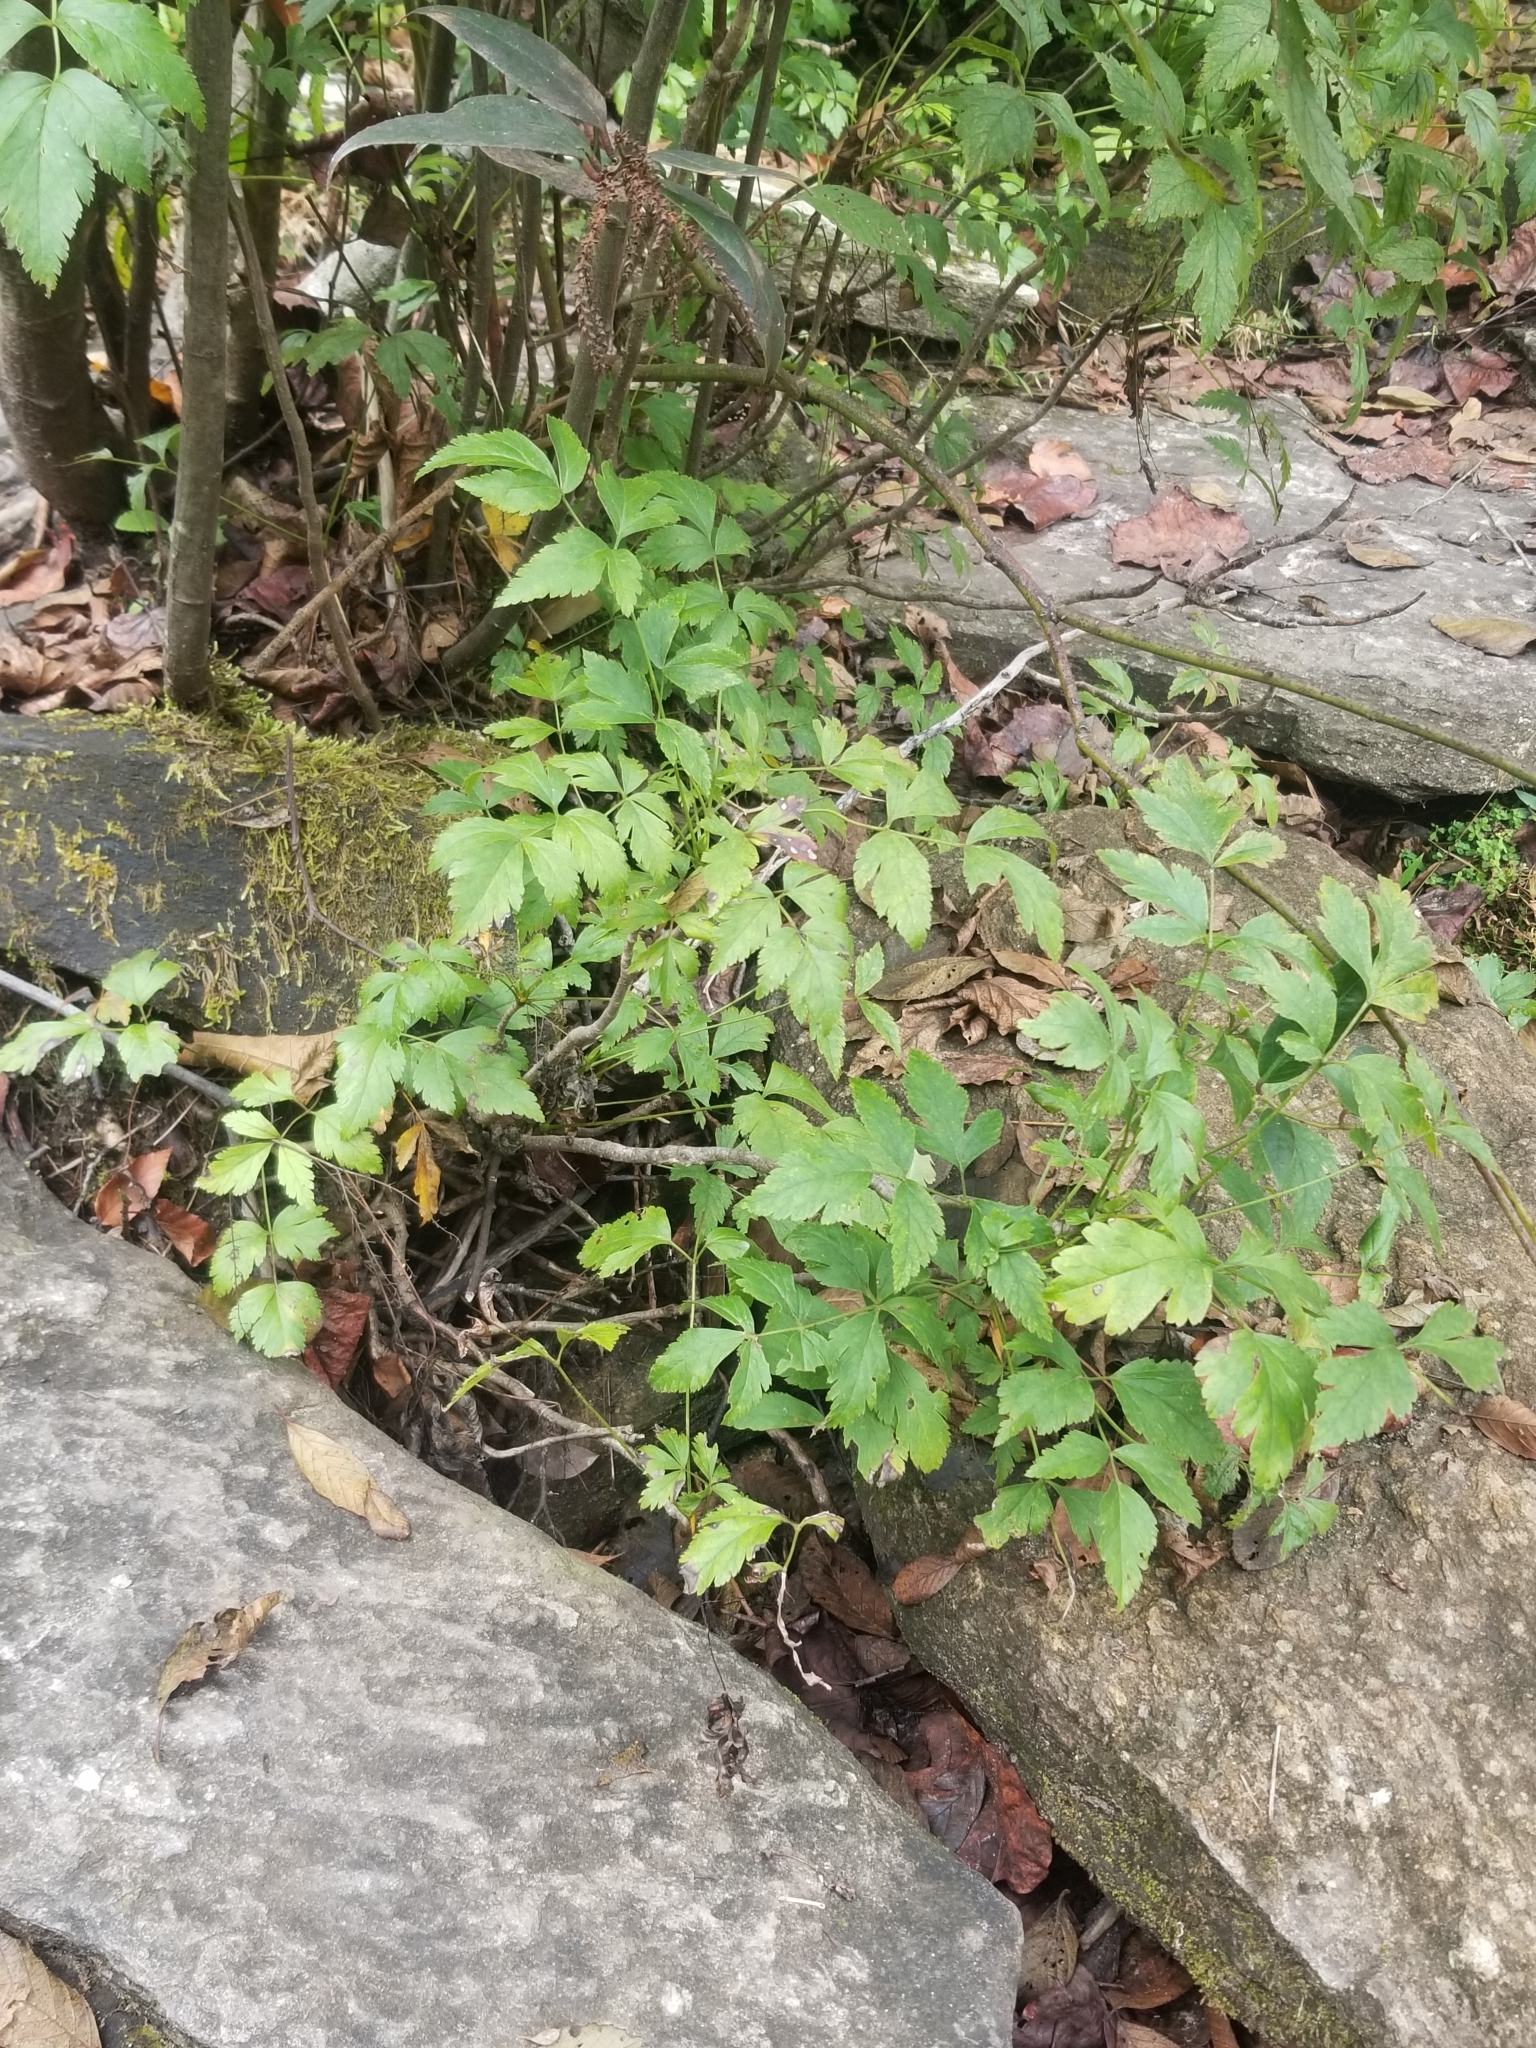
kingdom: Plantae
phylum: Tracheophyta
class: Magnoliopsida
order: Ranunculales
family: Ranunculaceae
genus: Xanthorhiza
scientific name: Xanthorhiza simplicissima
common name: Yellowroot
